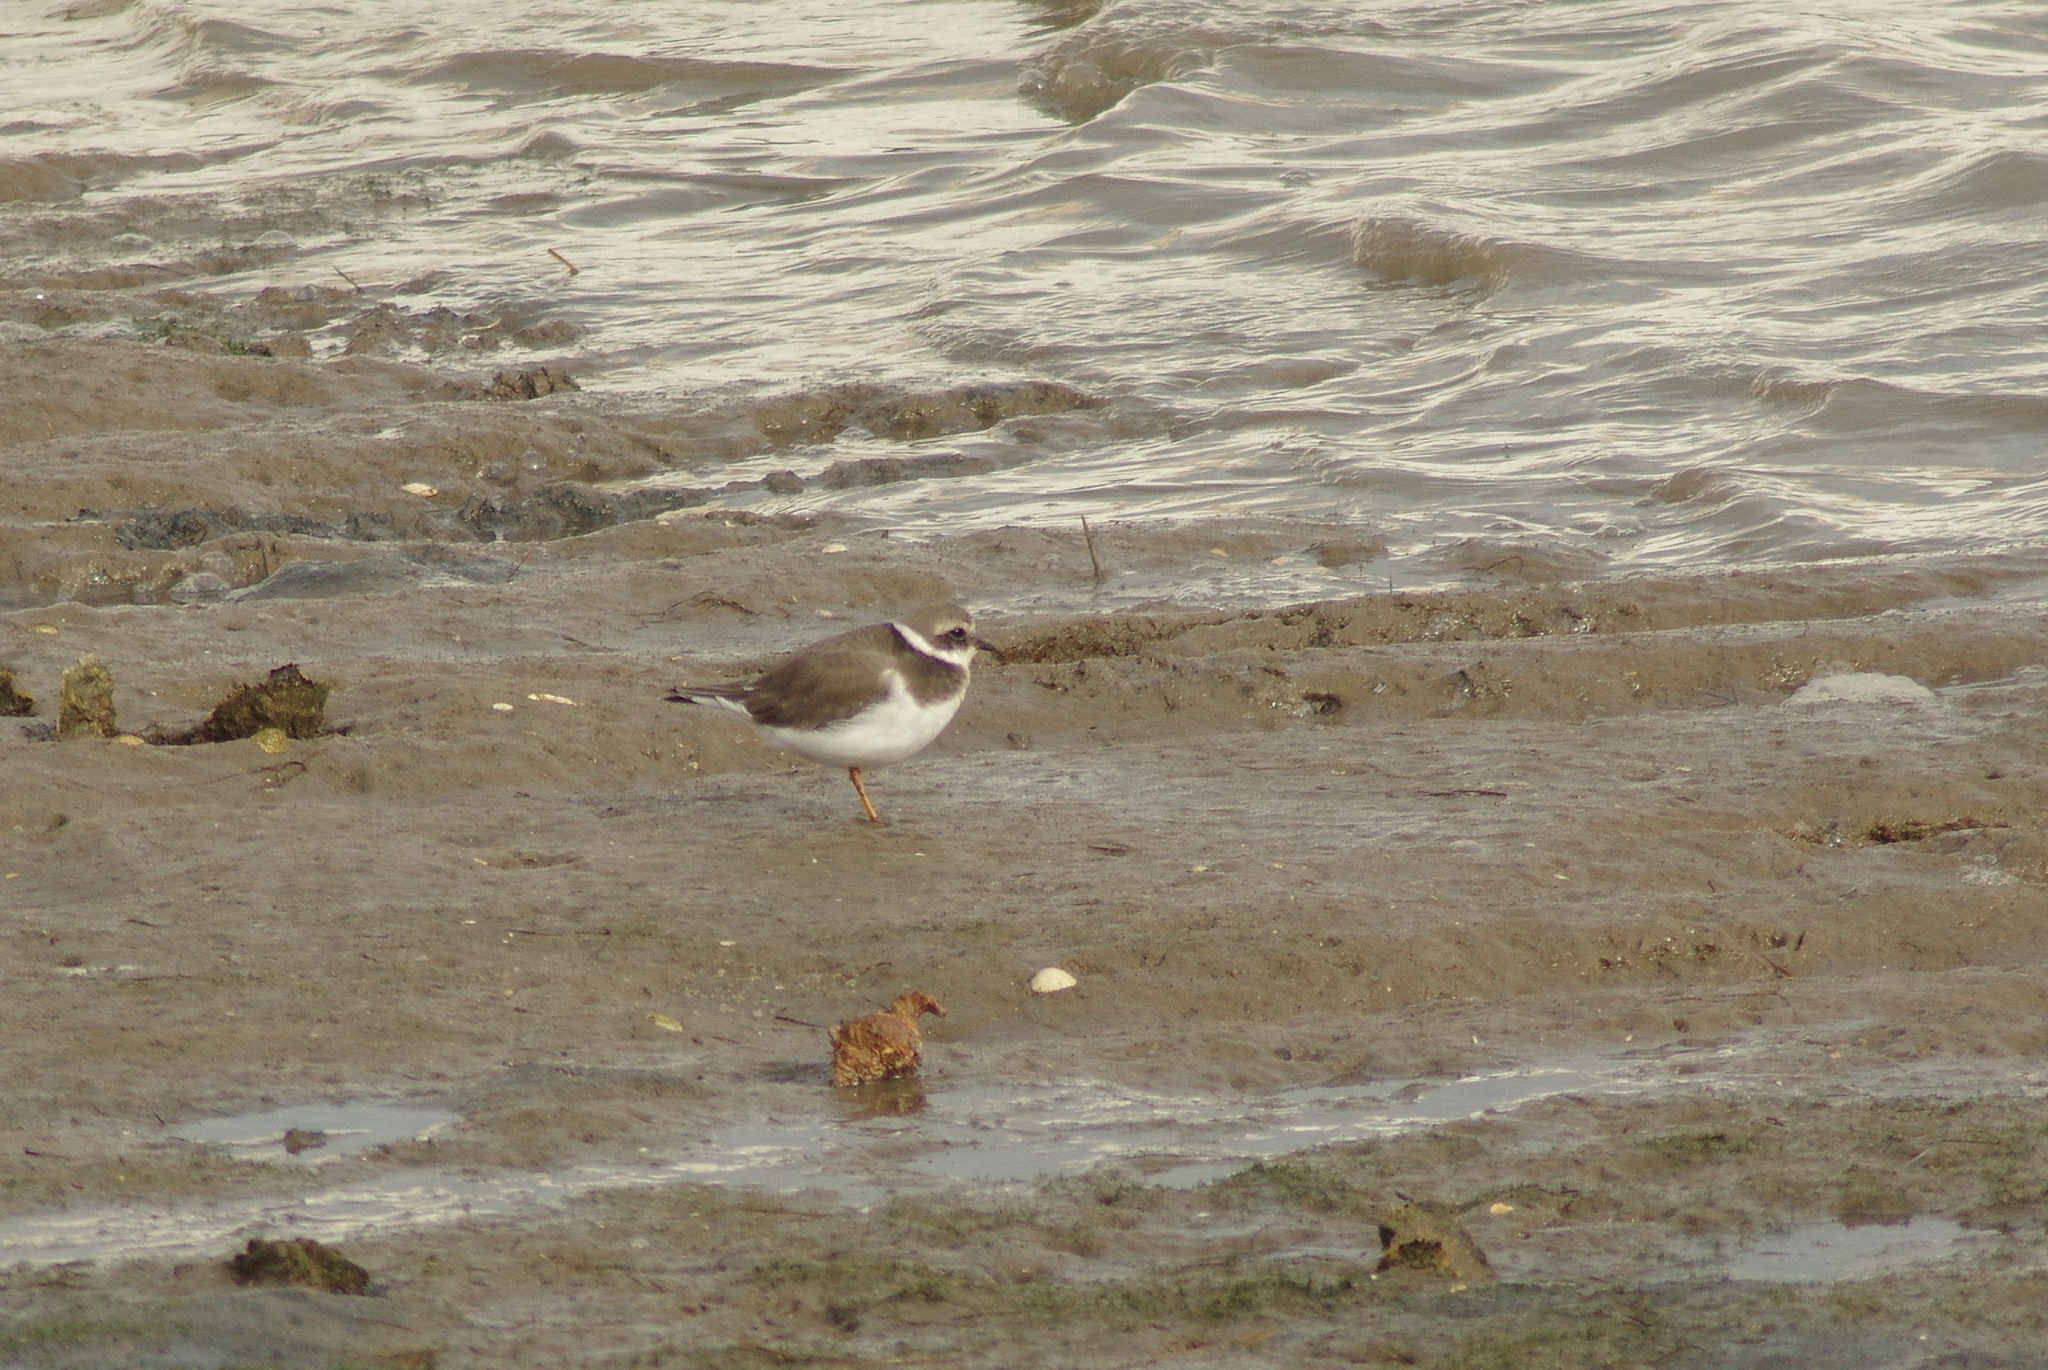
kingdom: Animalia
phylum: Chordata
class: Aves
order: Charadriiformes
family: Charadriidae
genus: Charadrius
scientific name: Charadrius hiaticula
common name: Common ringed plover
